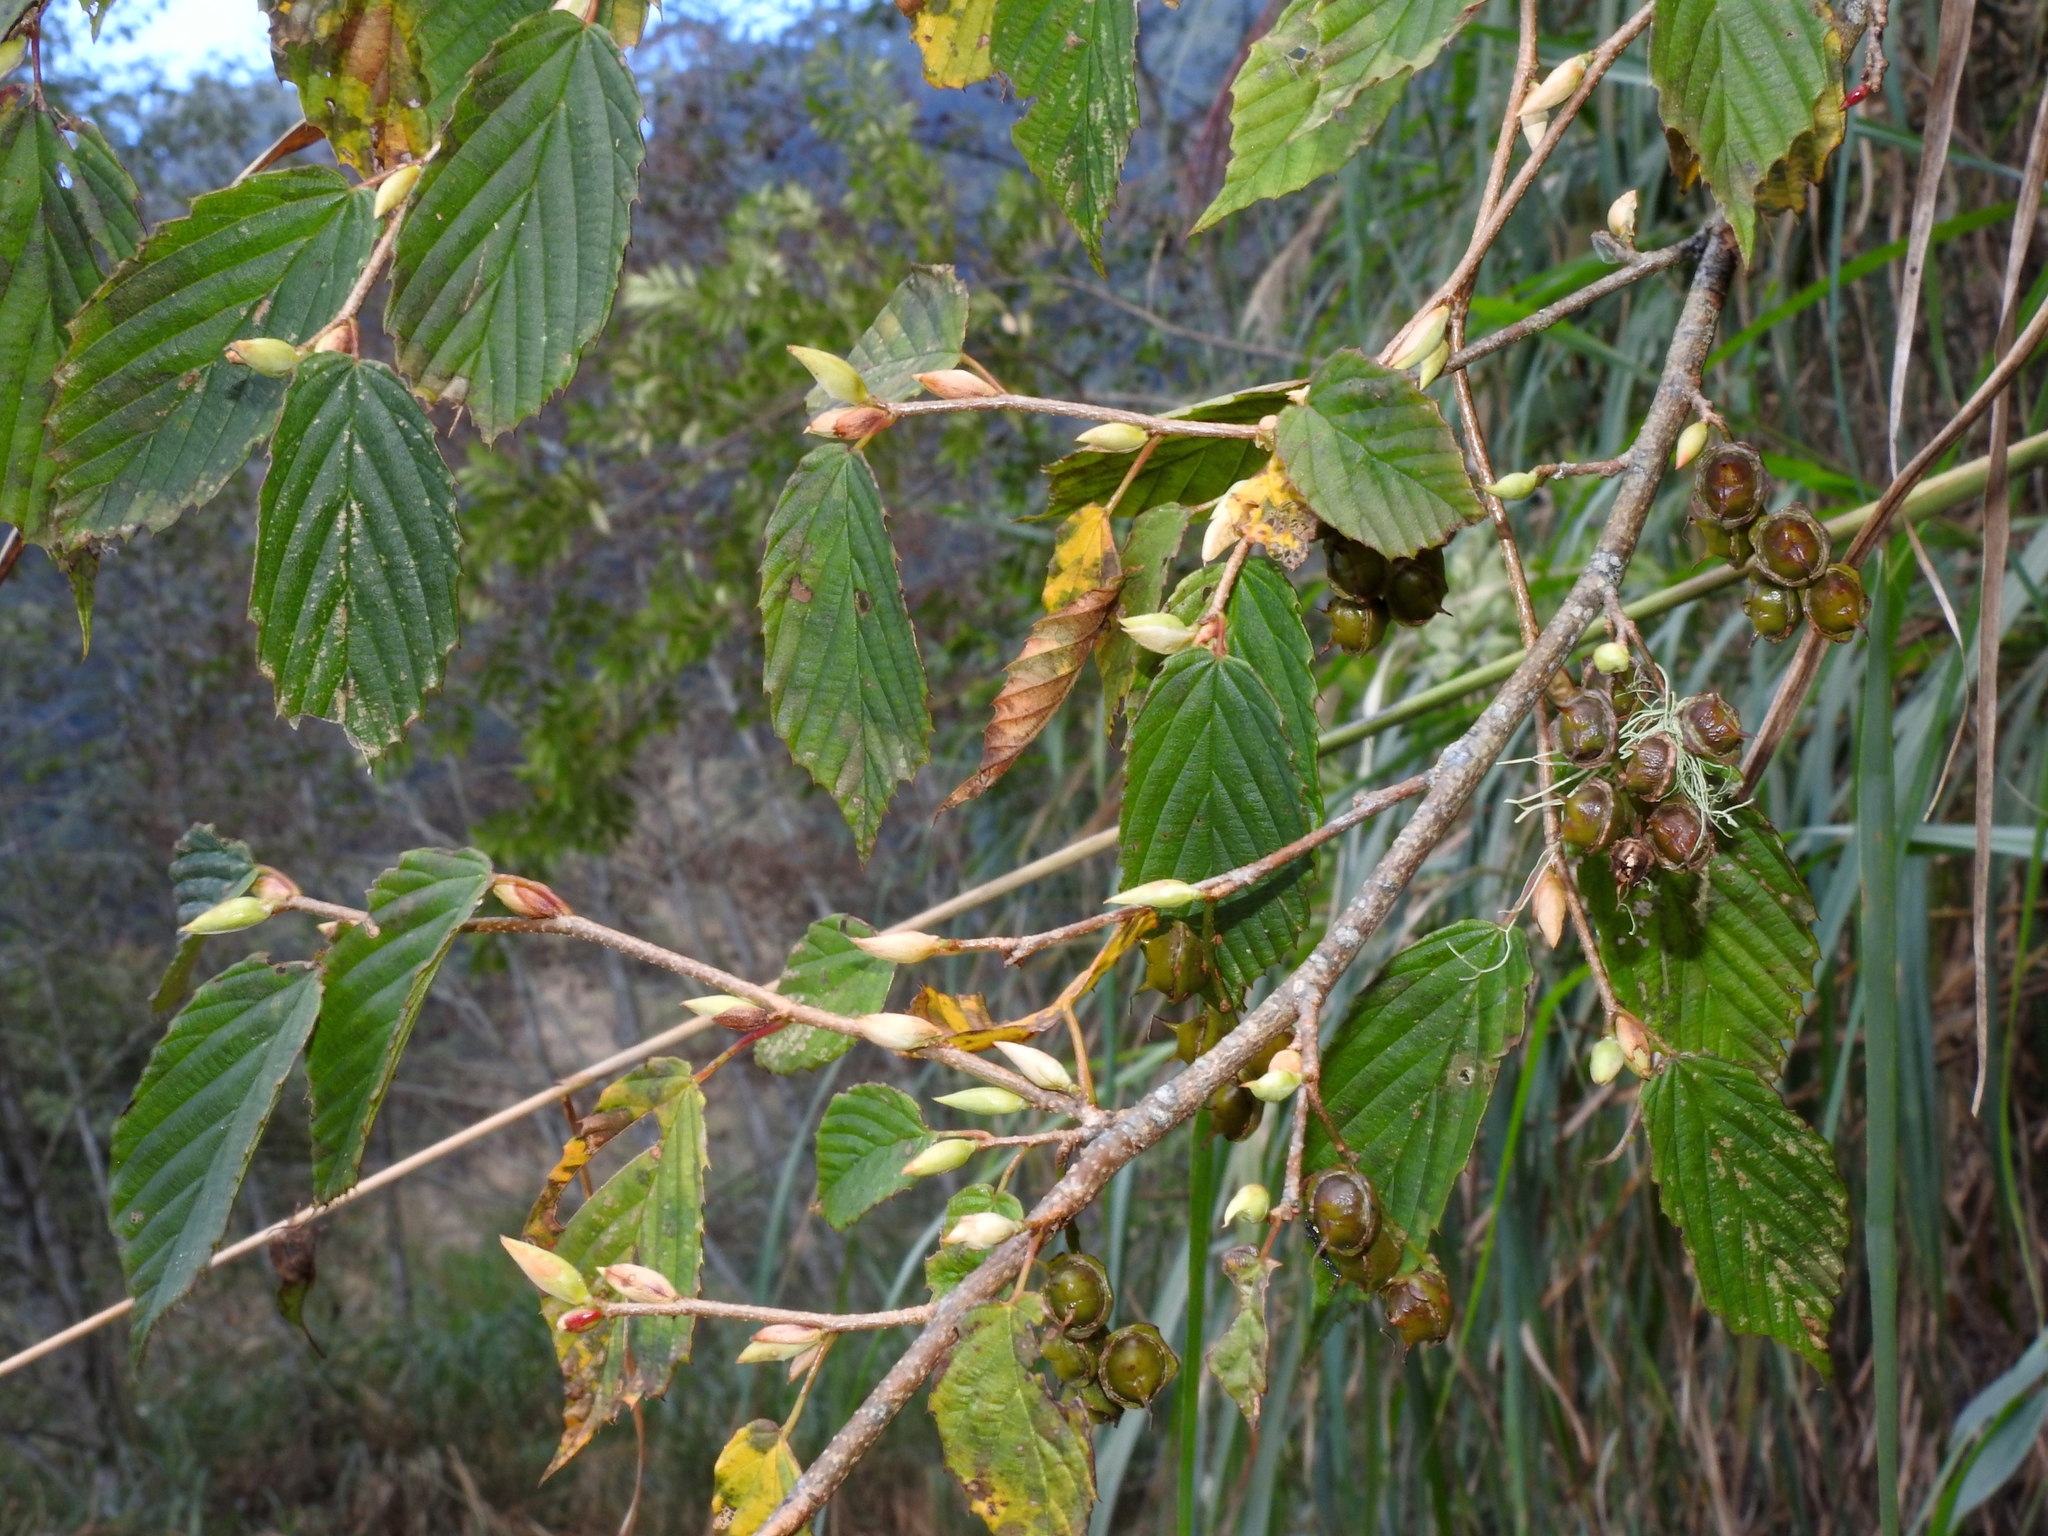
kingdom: Plantae
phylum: Tracheophyta
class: Magnoliopsida
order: Saxifragales
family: Hamamelidaceae
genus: Corylopsis
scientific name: Corylopsis pauciflora
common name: Buttercup winter-hazel
